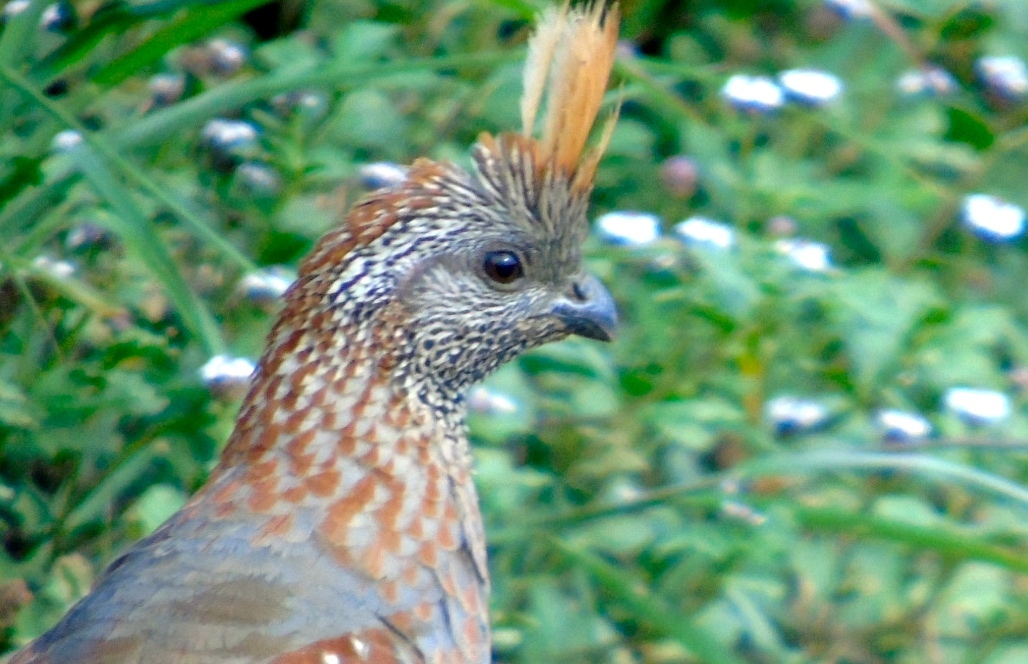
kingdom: Animalia
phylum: Chordata
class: Aves
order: Galliformes
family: Odontophoridae
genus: Callipepla
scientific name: Callipepla douglasii
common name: Elegant quail
